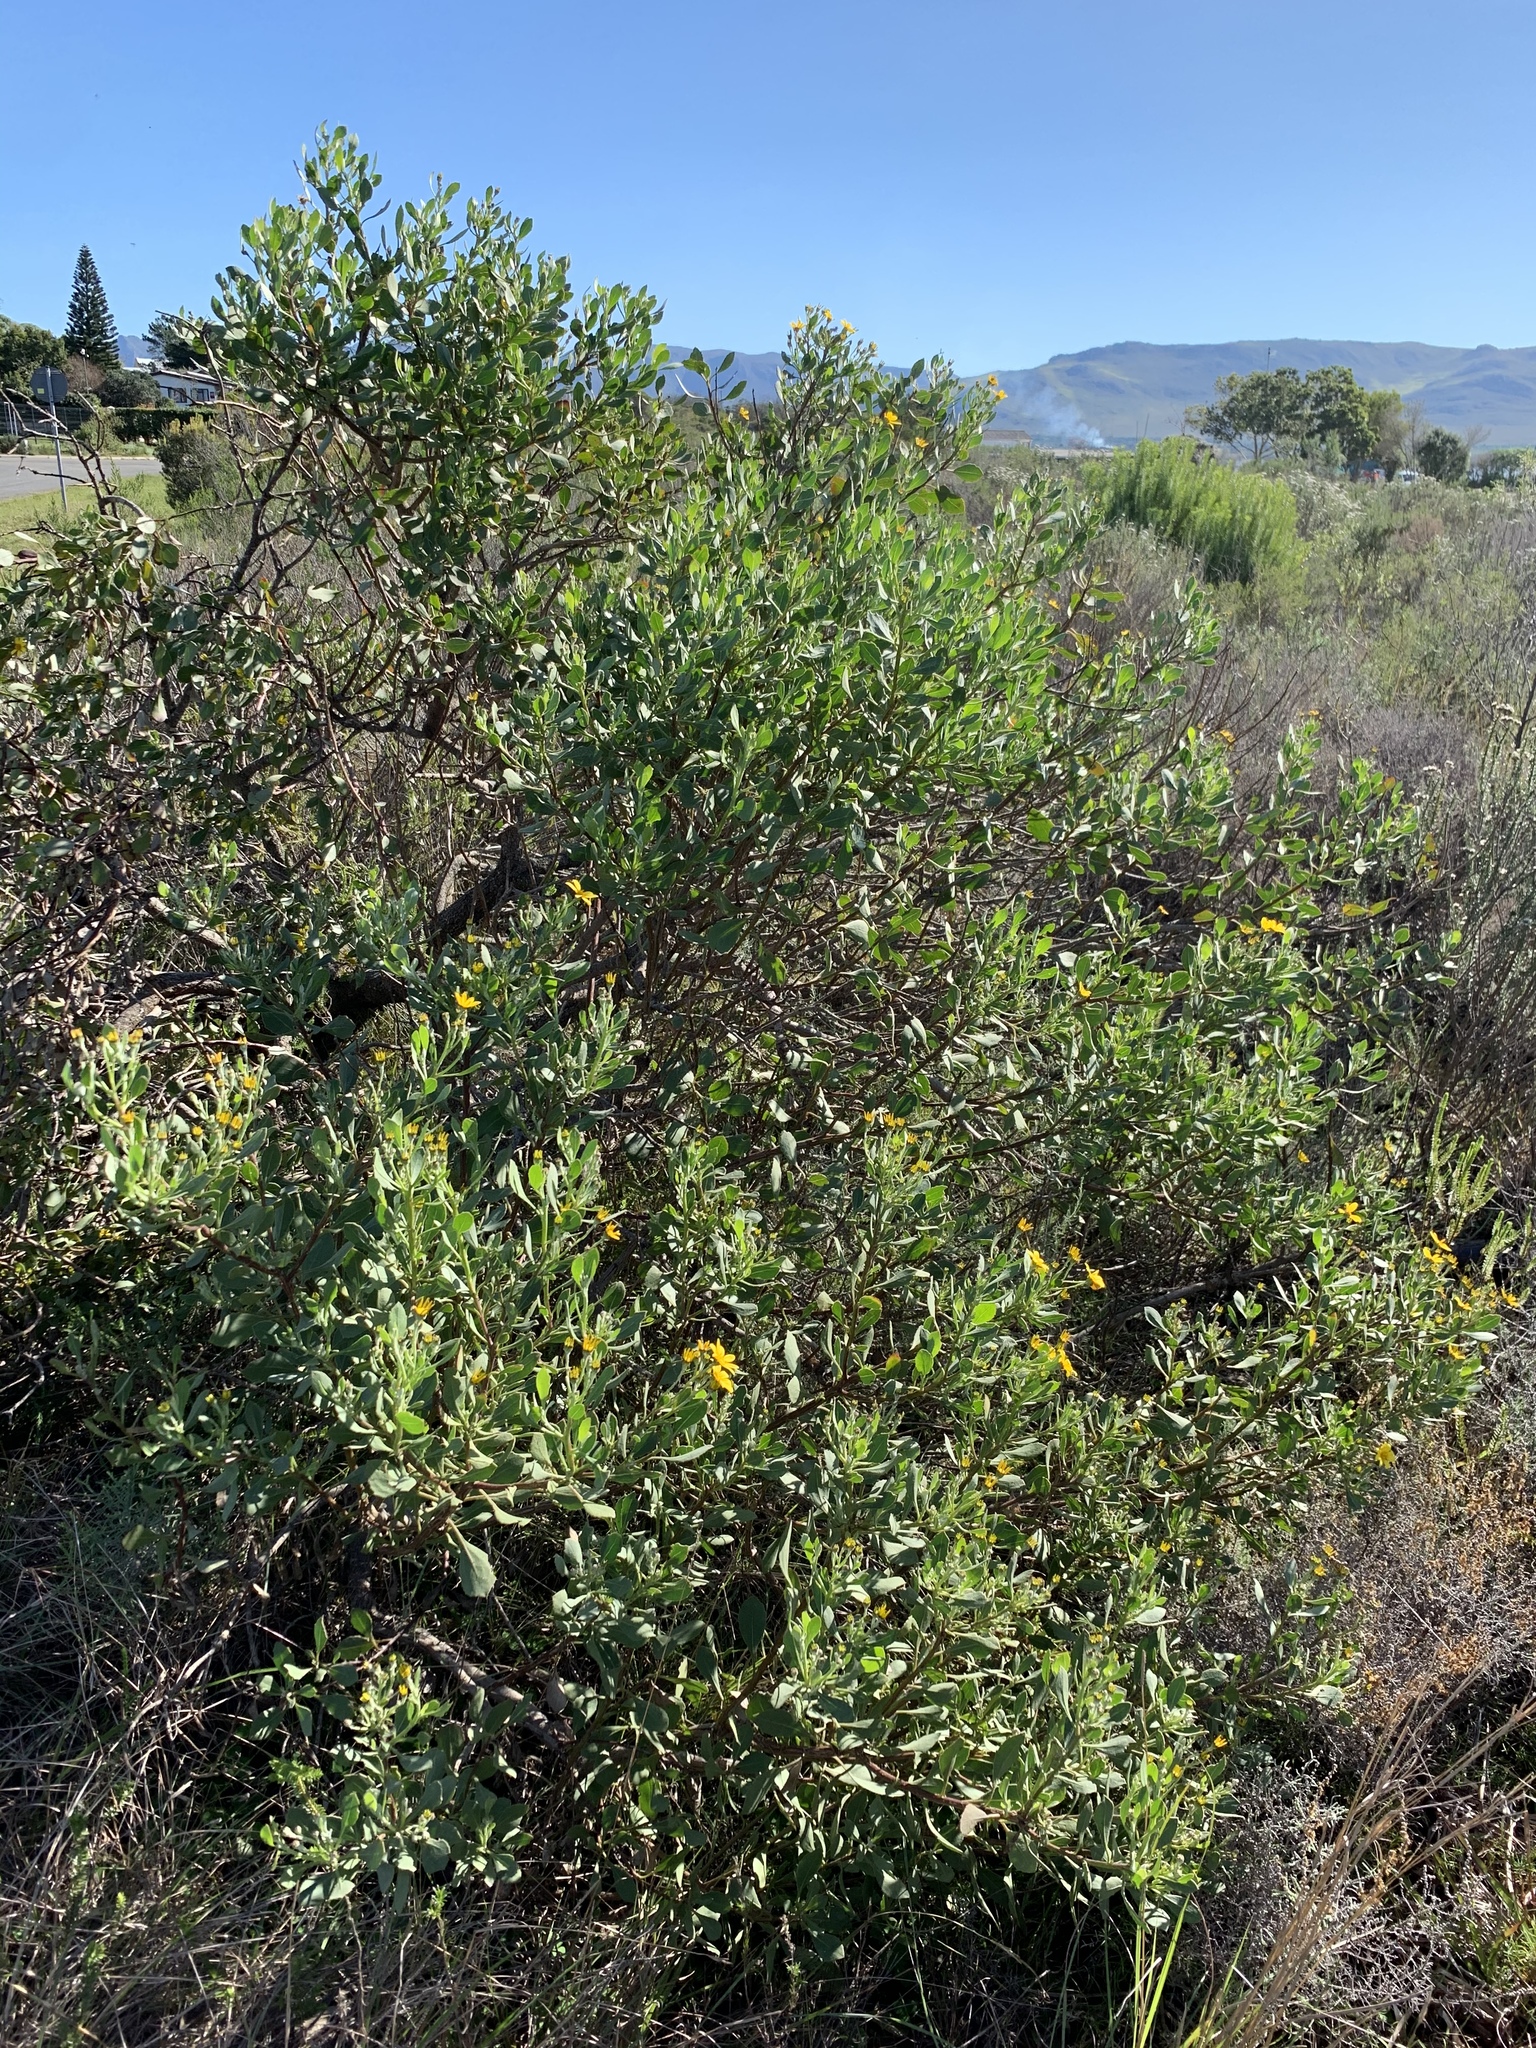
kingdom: Plantae
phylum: Tracheophyta
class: Magnoliopsida
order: Asterales
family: Asteraceae
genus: Osteospermum
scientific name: Osteospermum moniliferum
